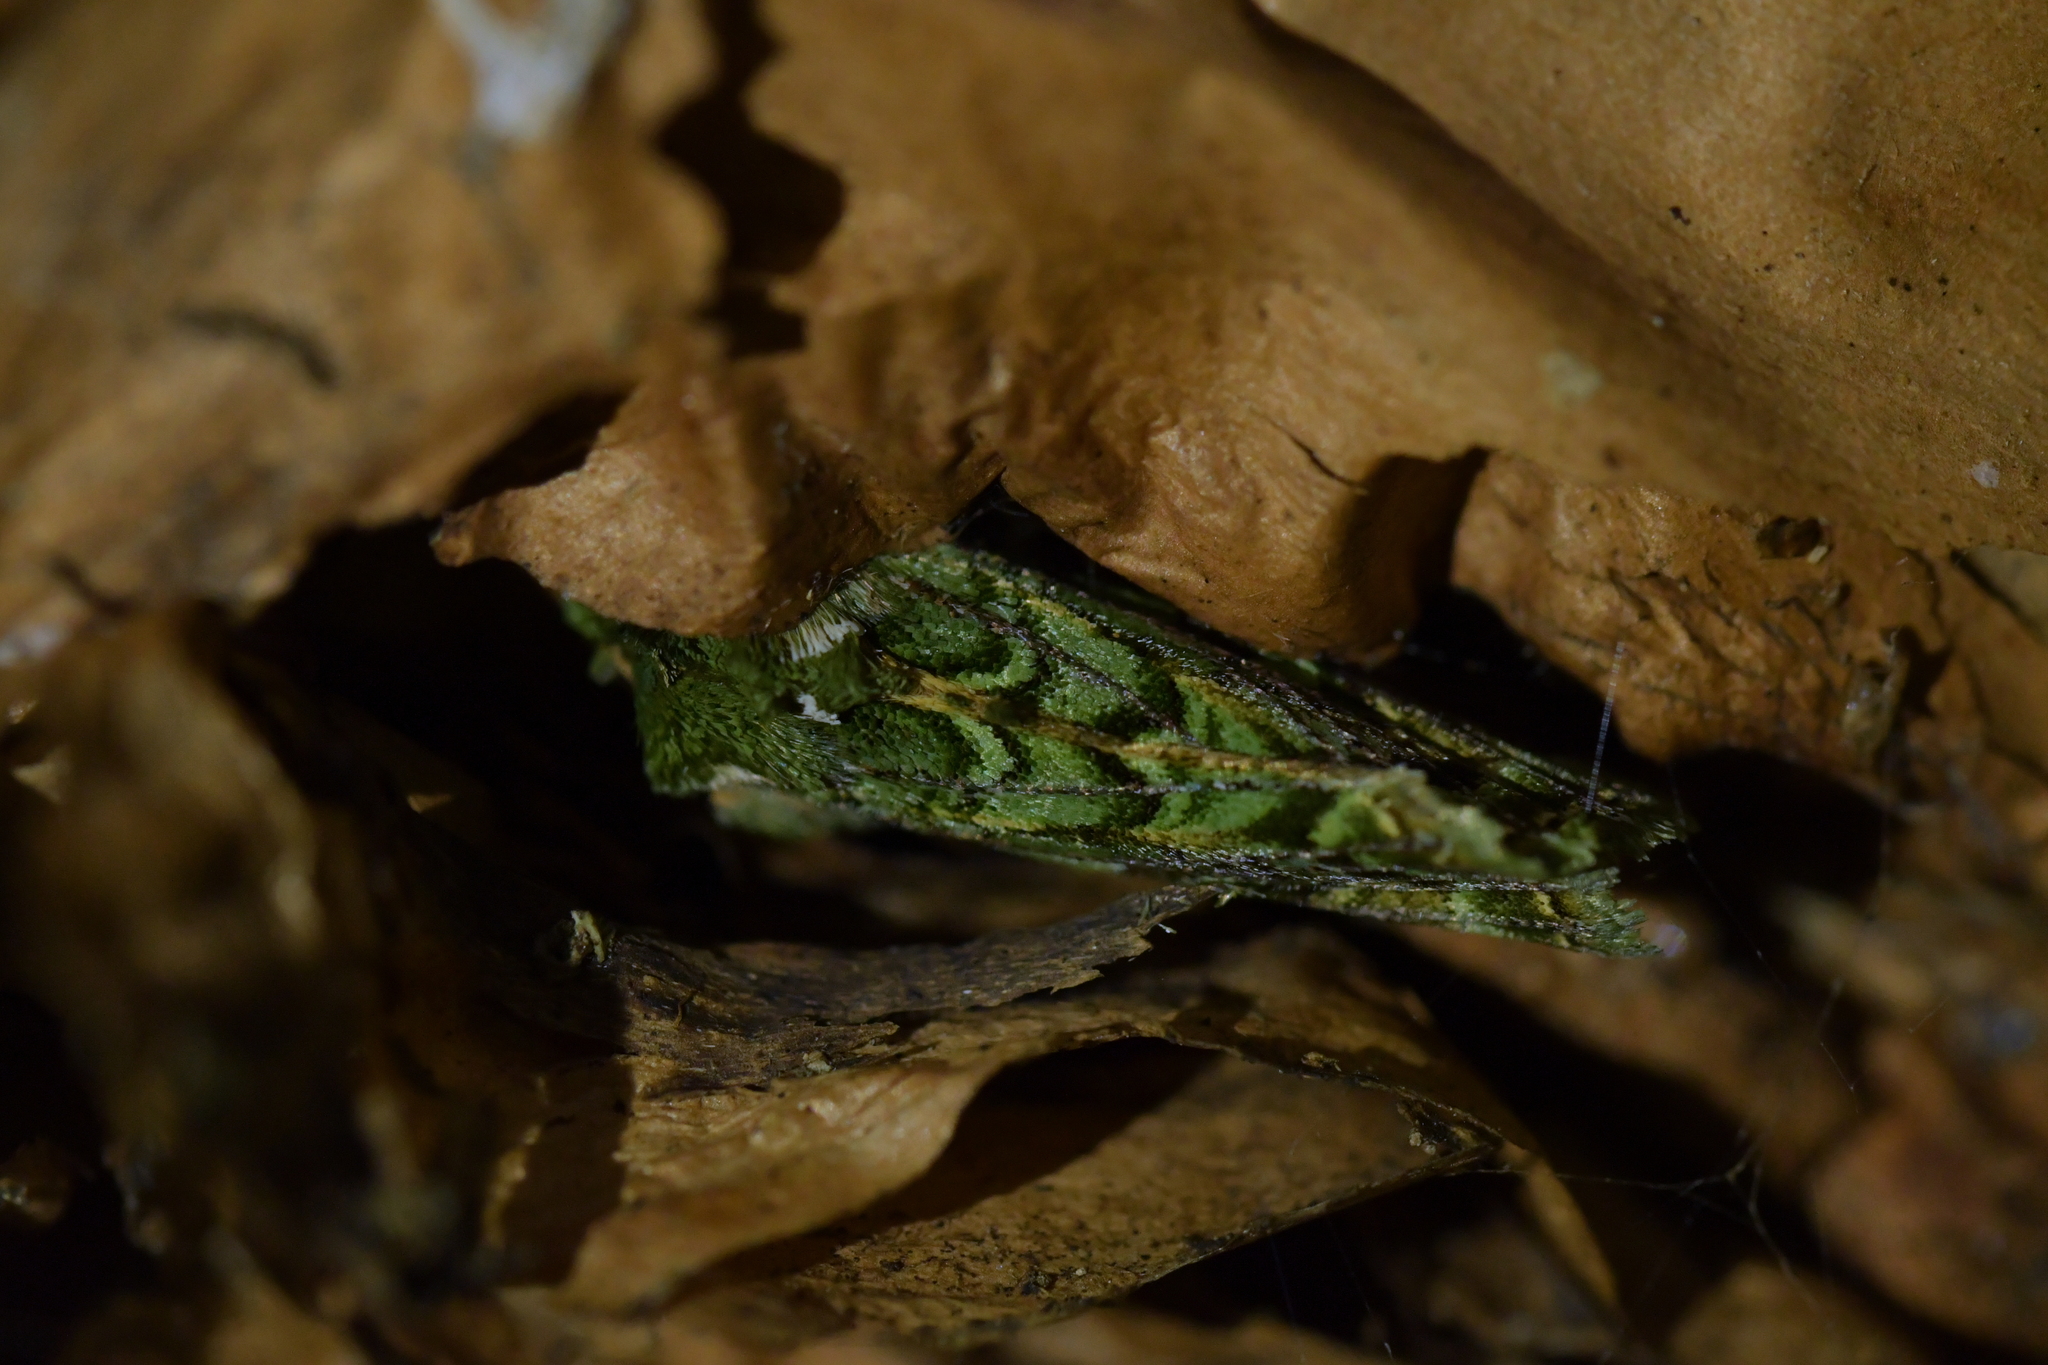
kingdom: Animalia
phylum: Arthropoda
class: Insecta
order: Lepidoptera
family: Noctuidae
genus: Feredayia
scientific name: Feredayia grammosa
